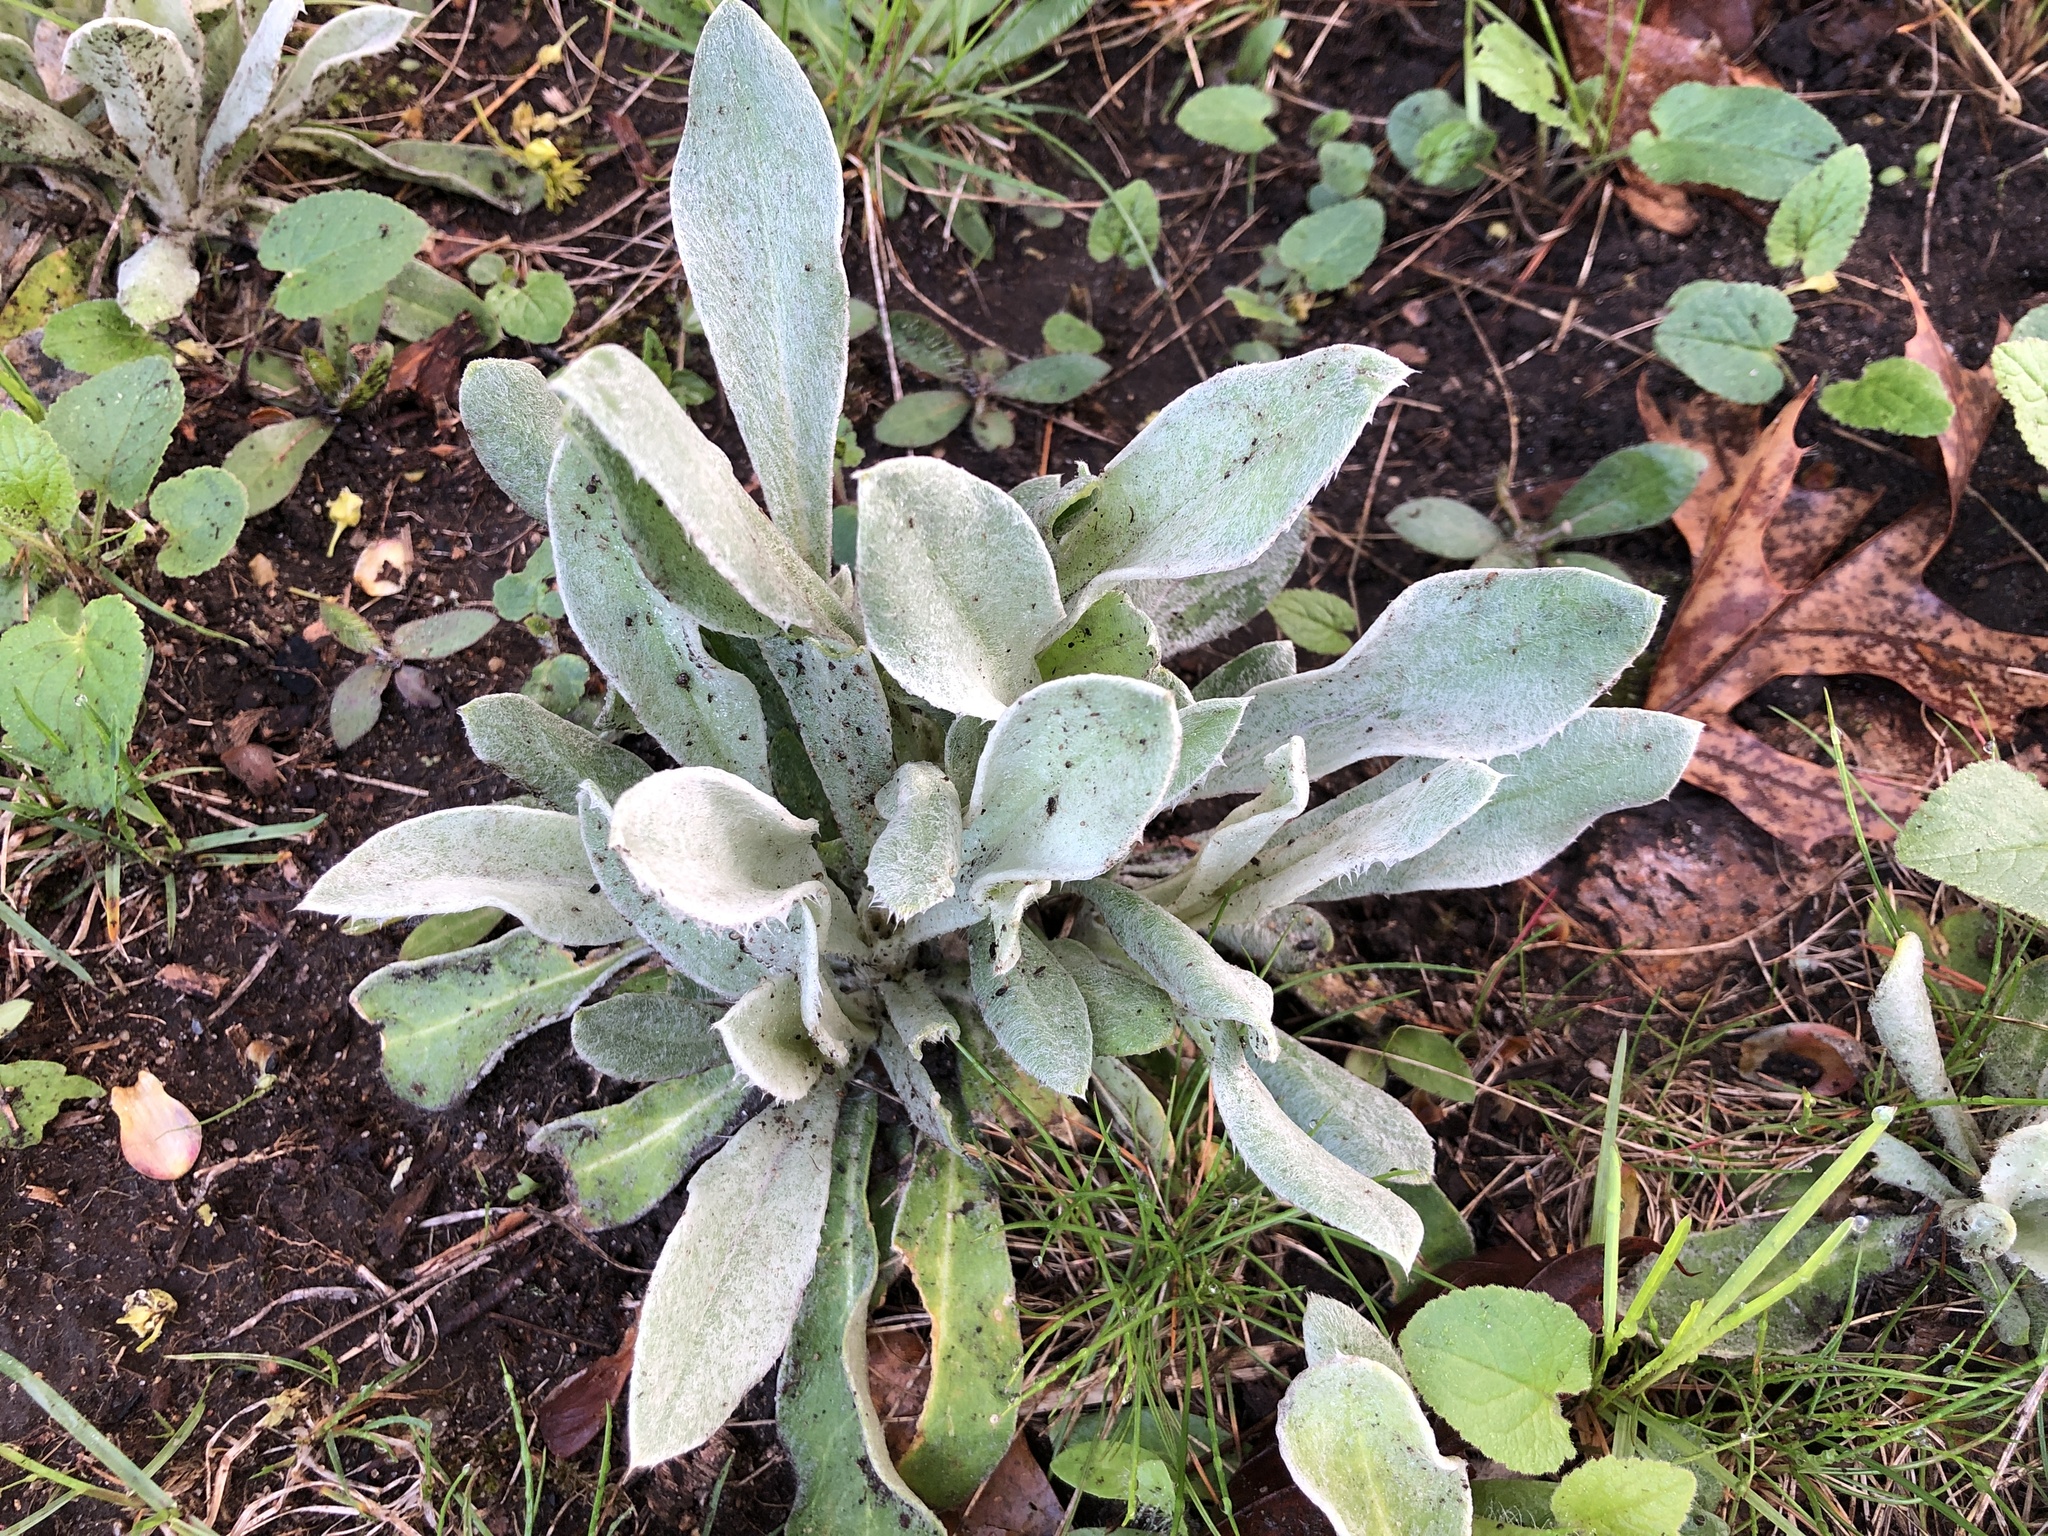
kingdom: Plantae
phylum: Tracheophyta
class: Magnoliopsida
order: Caryophyllales
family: Caryophyllaceae
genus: Silene
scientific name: Silene coronaria
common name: Rose campion
